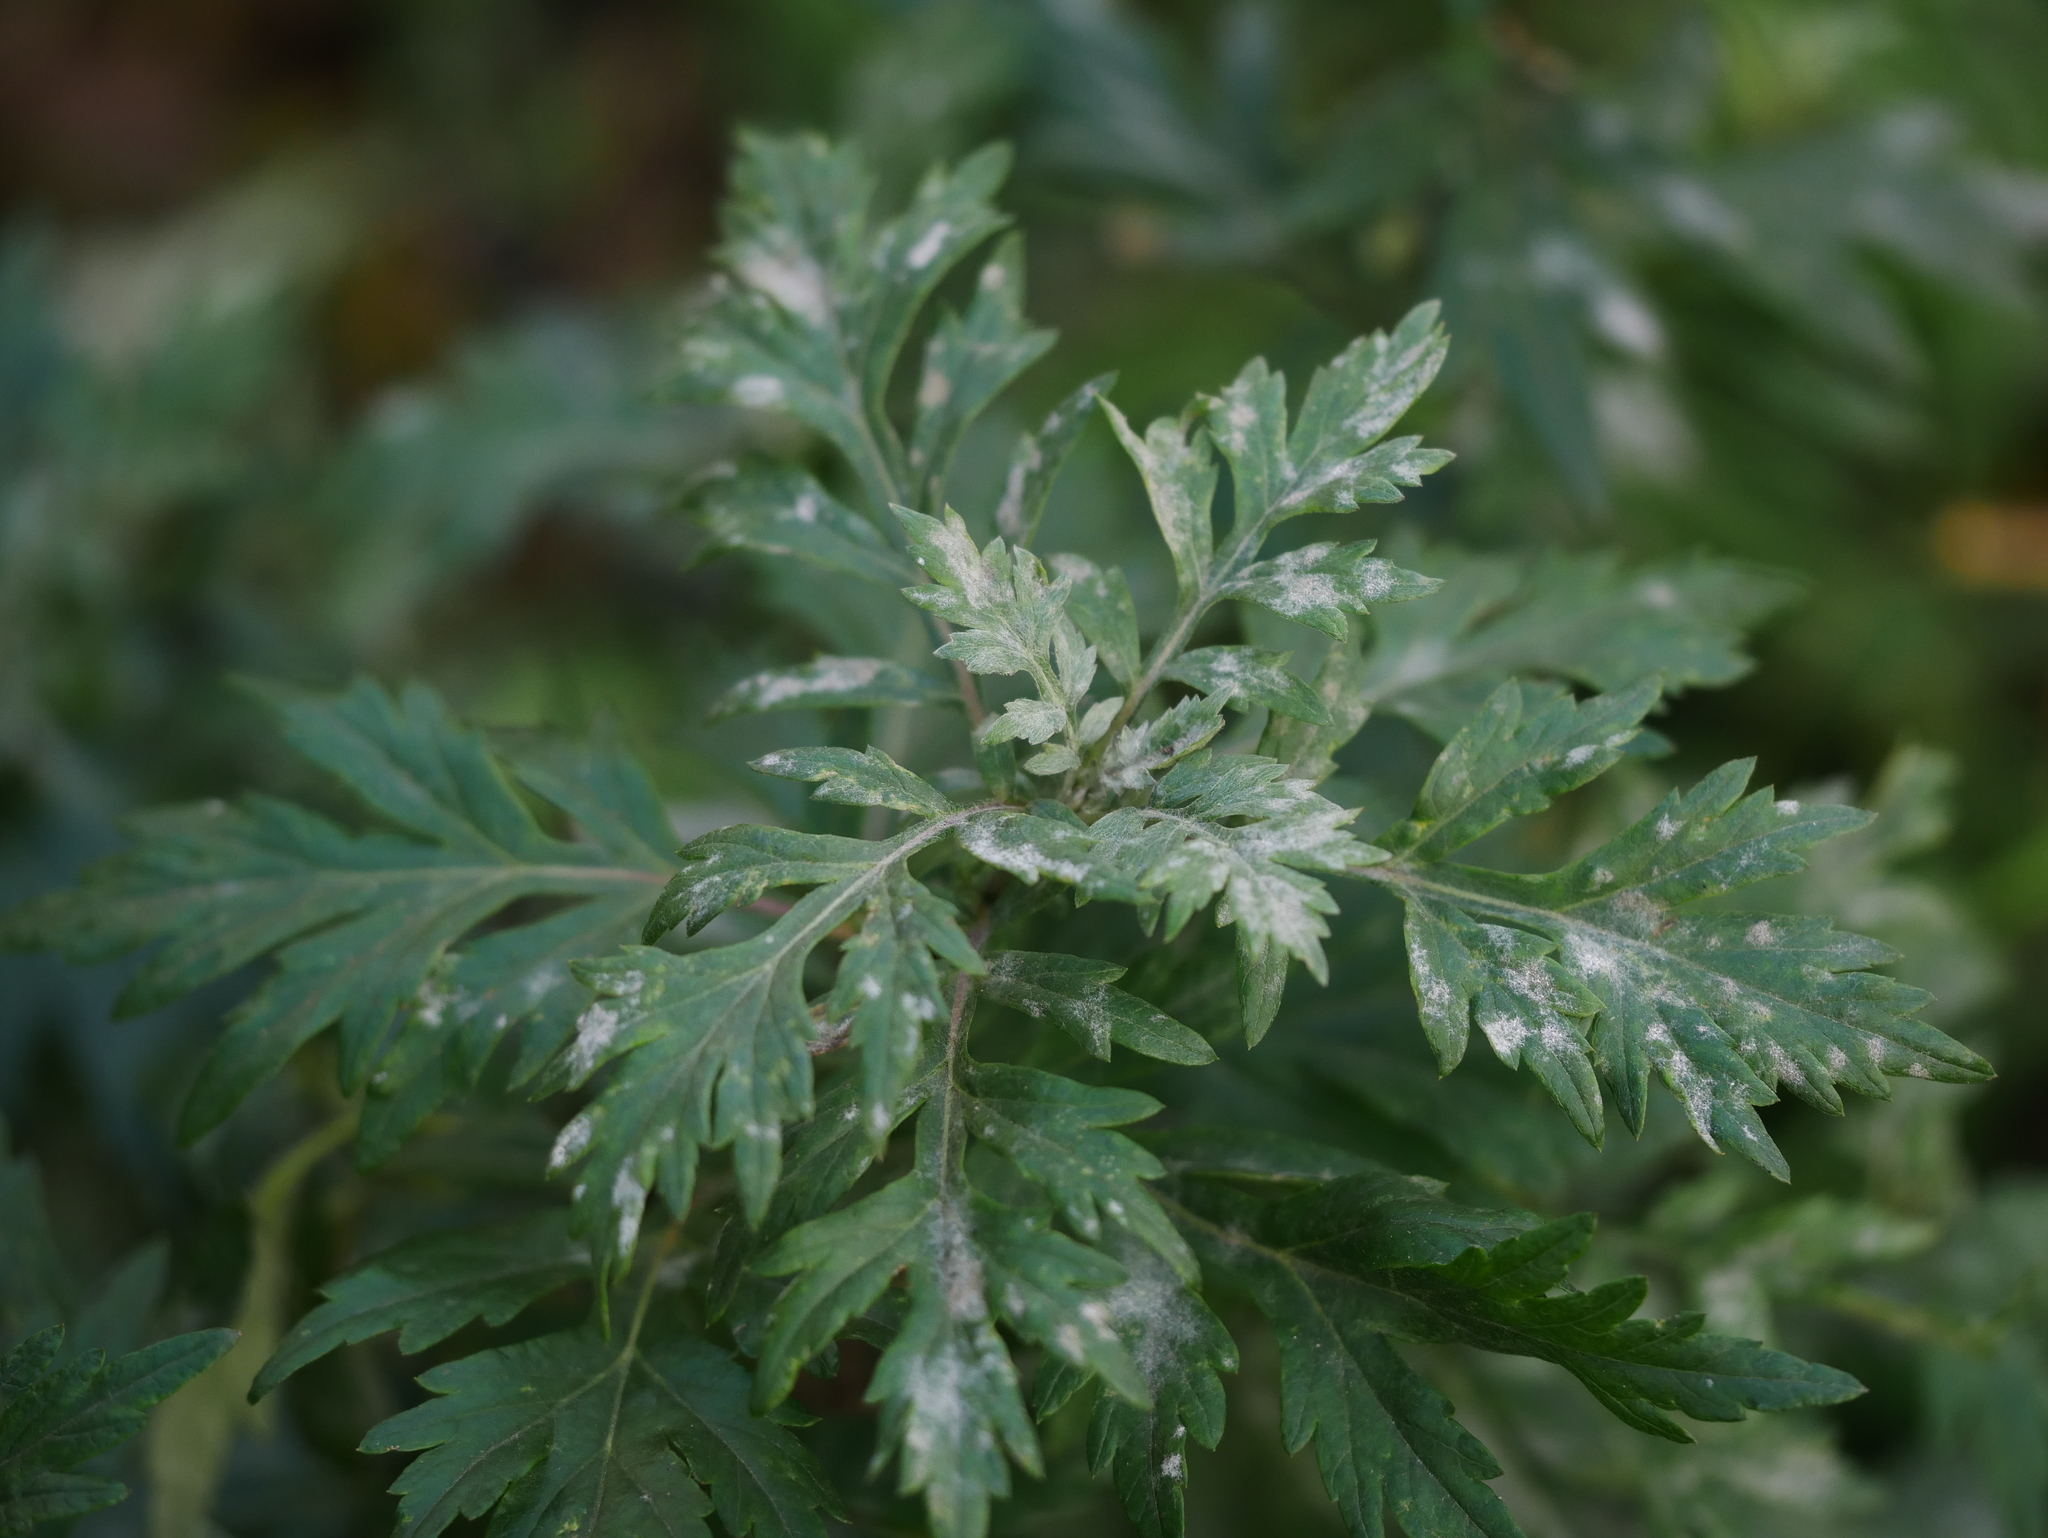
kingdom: Plantae
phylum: Tracheophyta
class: Magnoliopsida
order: Asterales
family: Asteraceae
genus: Artemisia
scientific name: Artemisia vulgaris
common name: Mugwort
